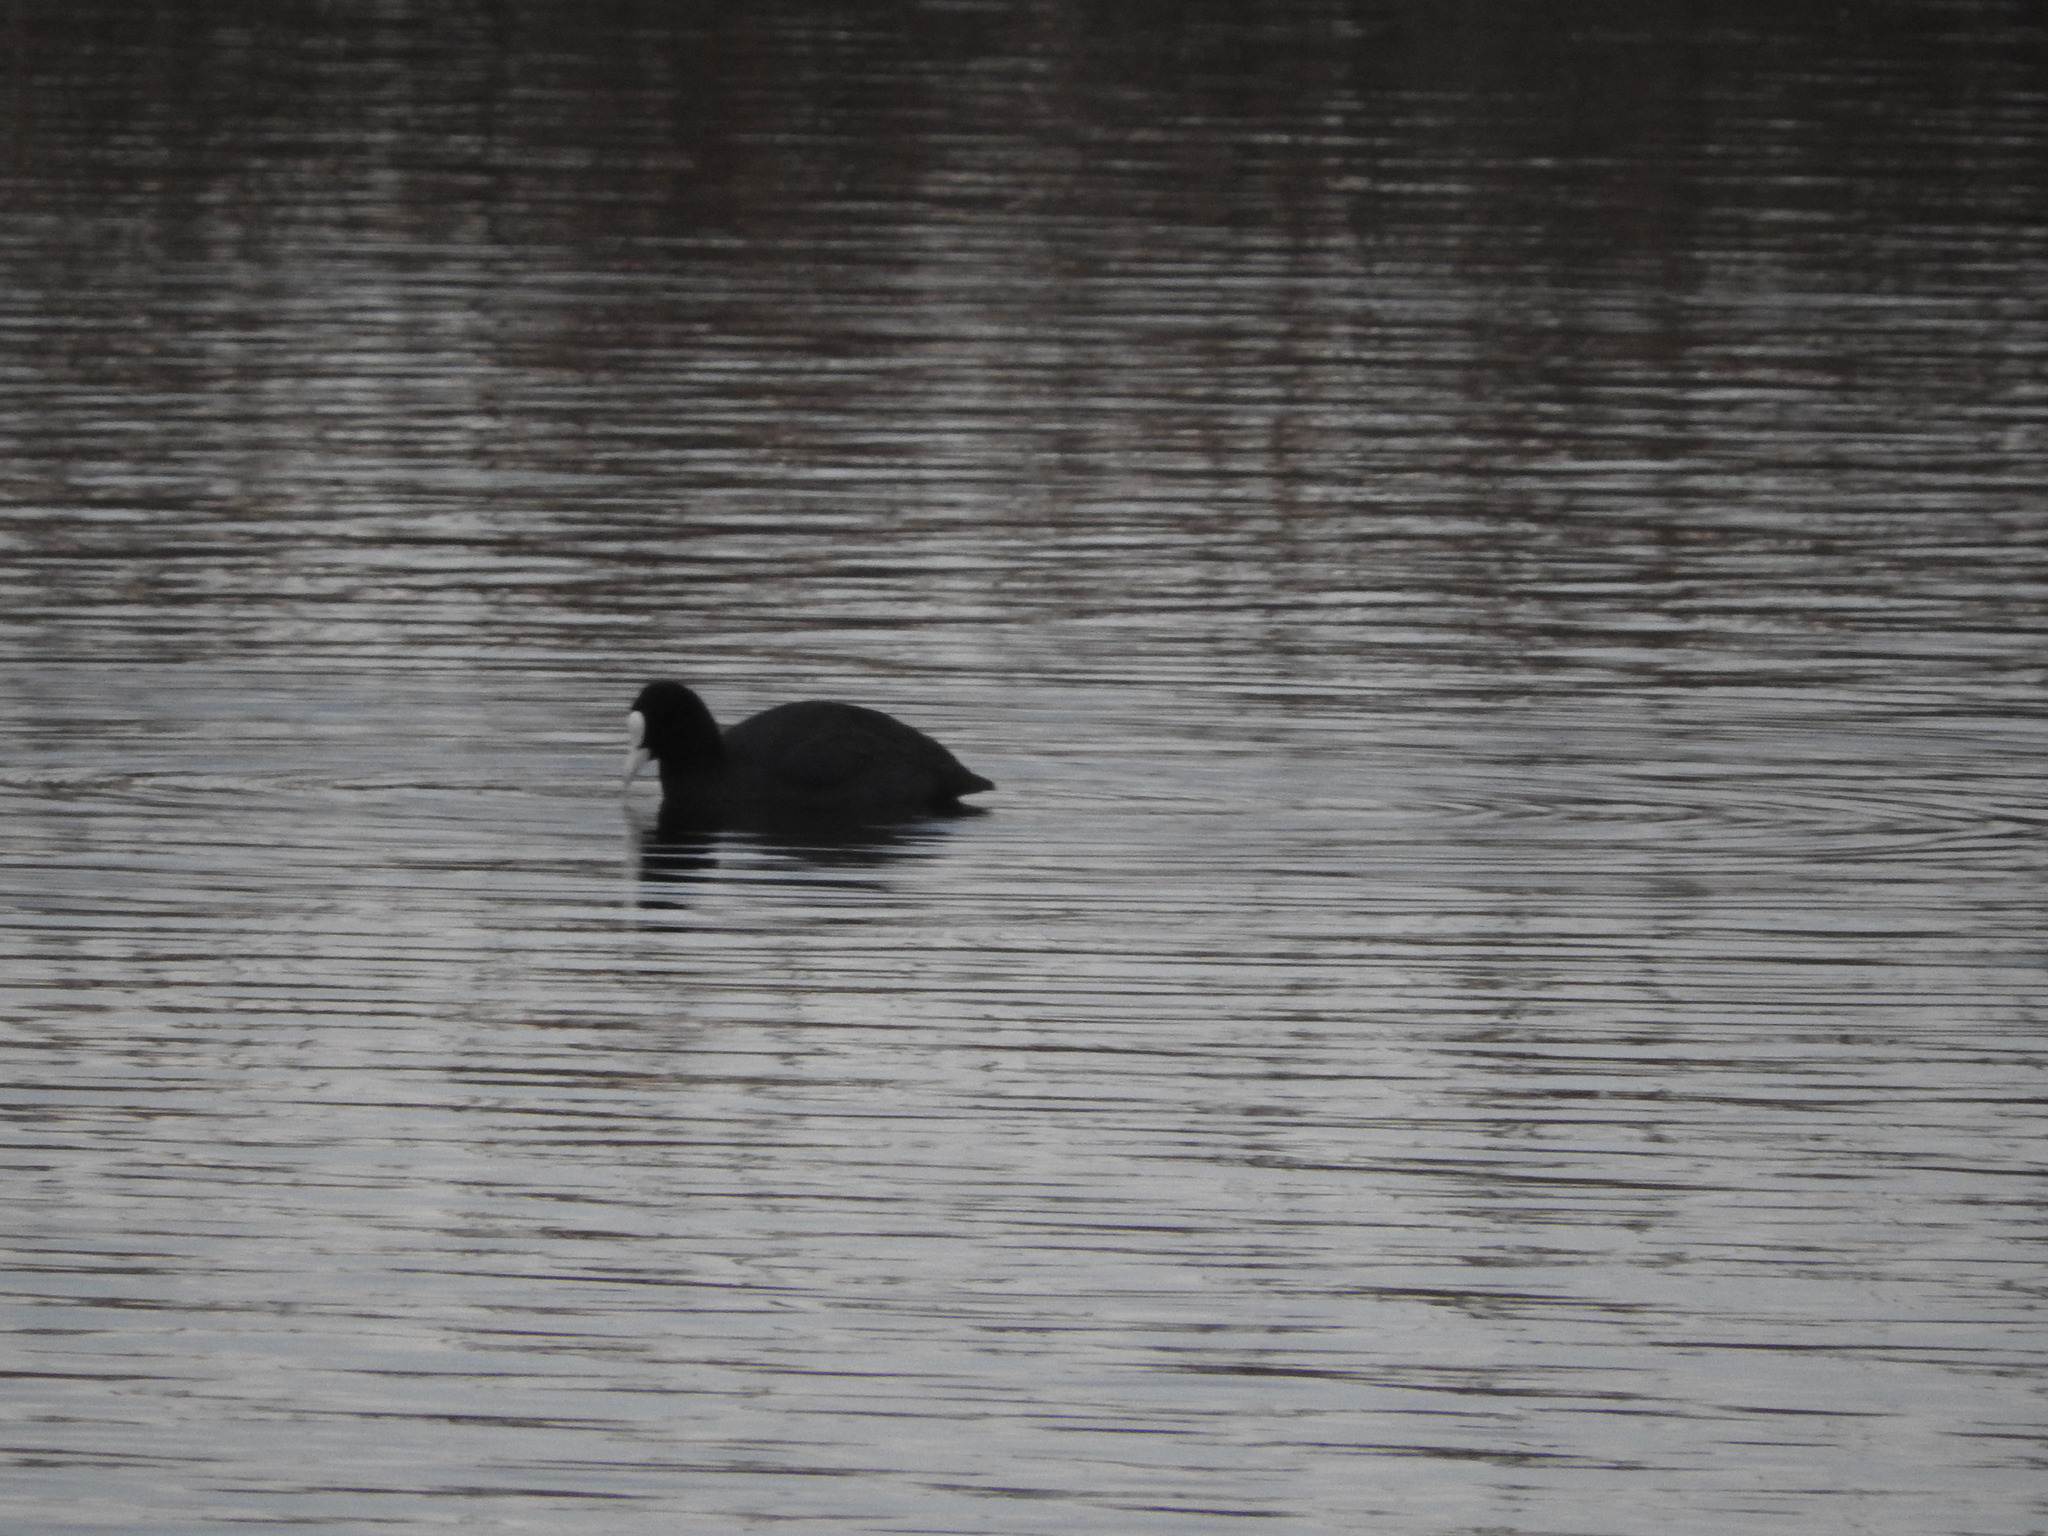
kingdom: Animalia
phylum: Chordata
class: Aves
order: Gruiformes
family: Rallidae
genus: Fulica
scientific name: Fulica atra
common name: Eurasian coot
